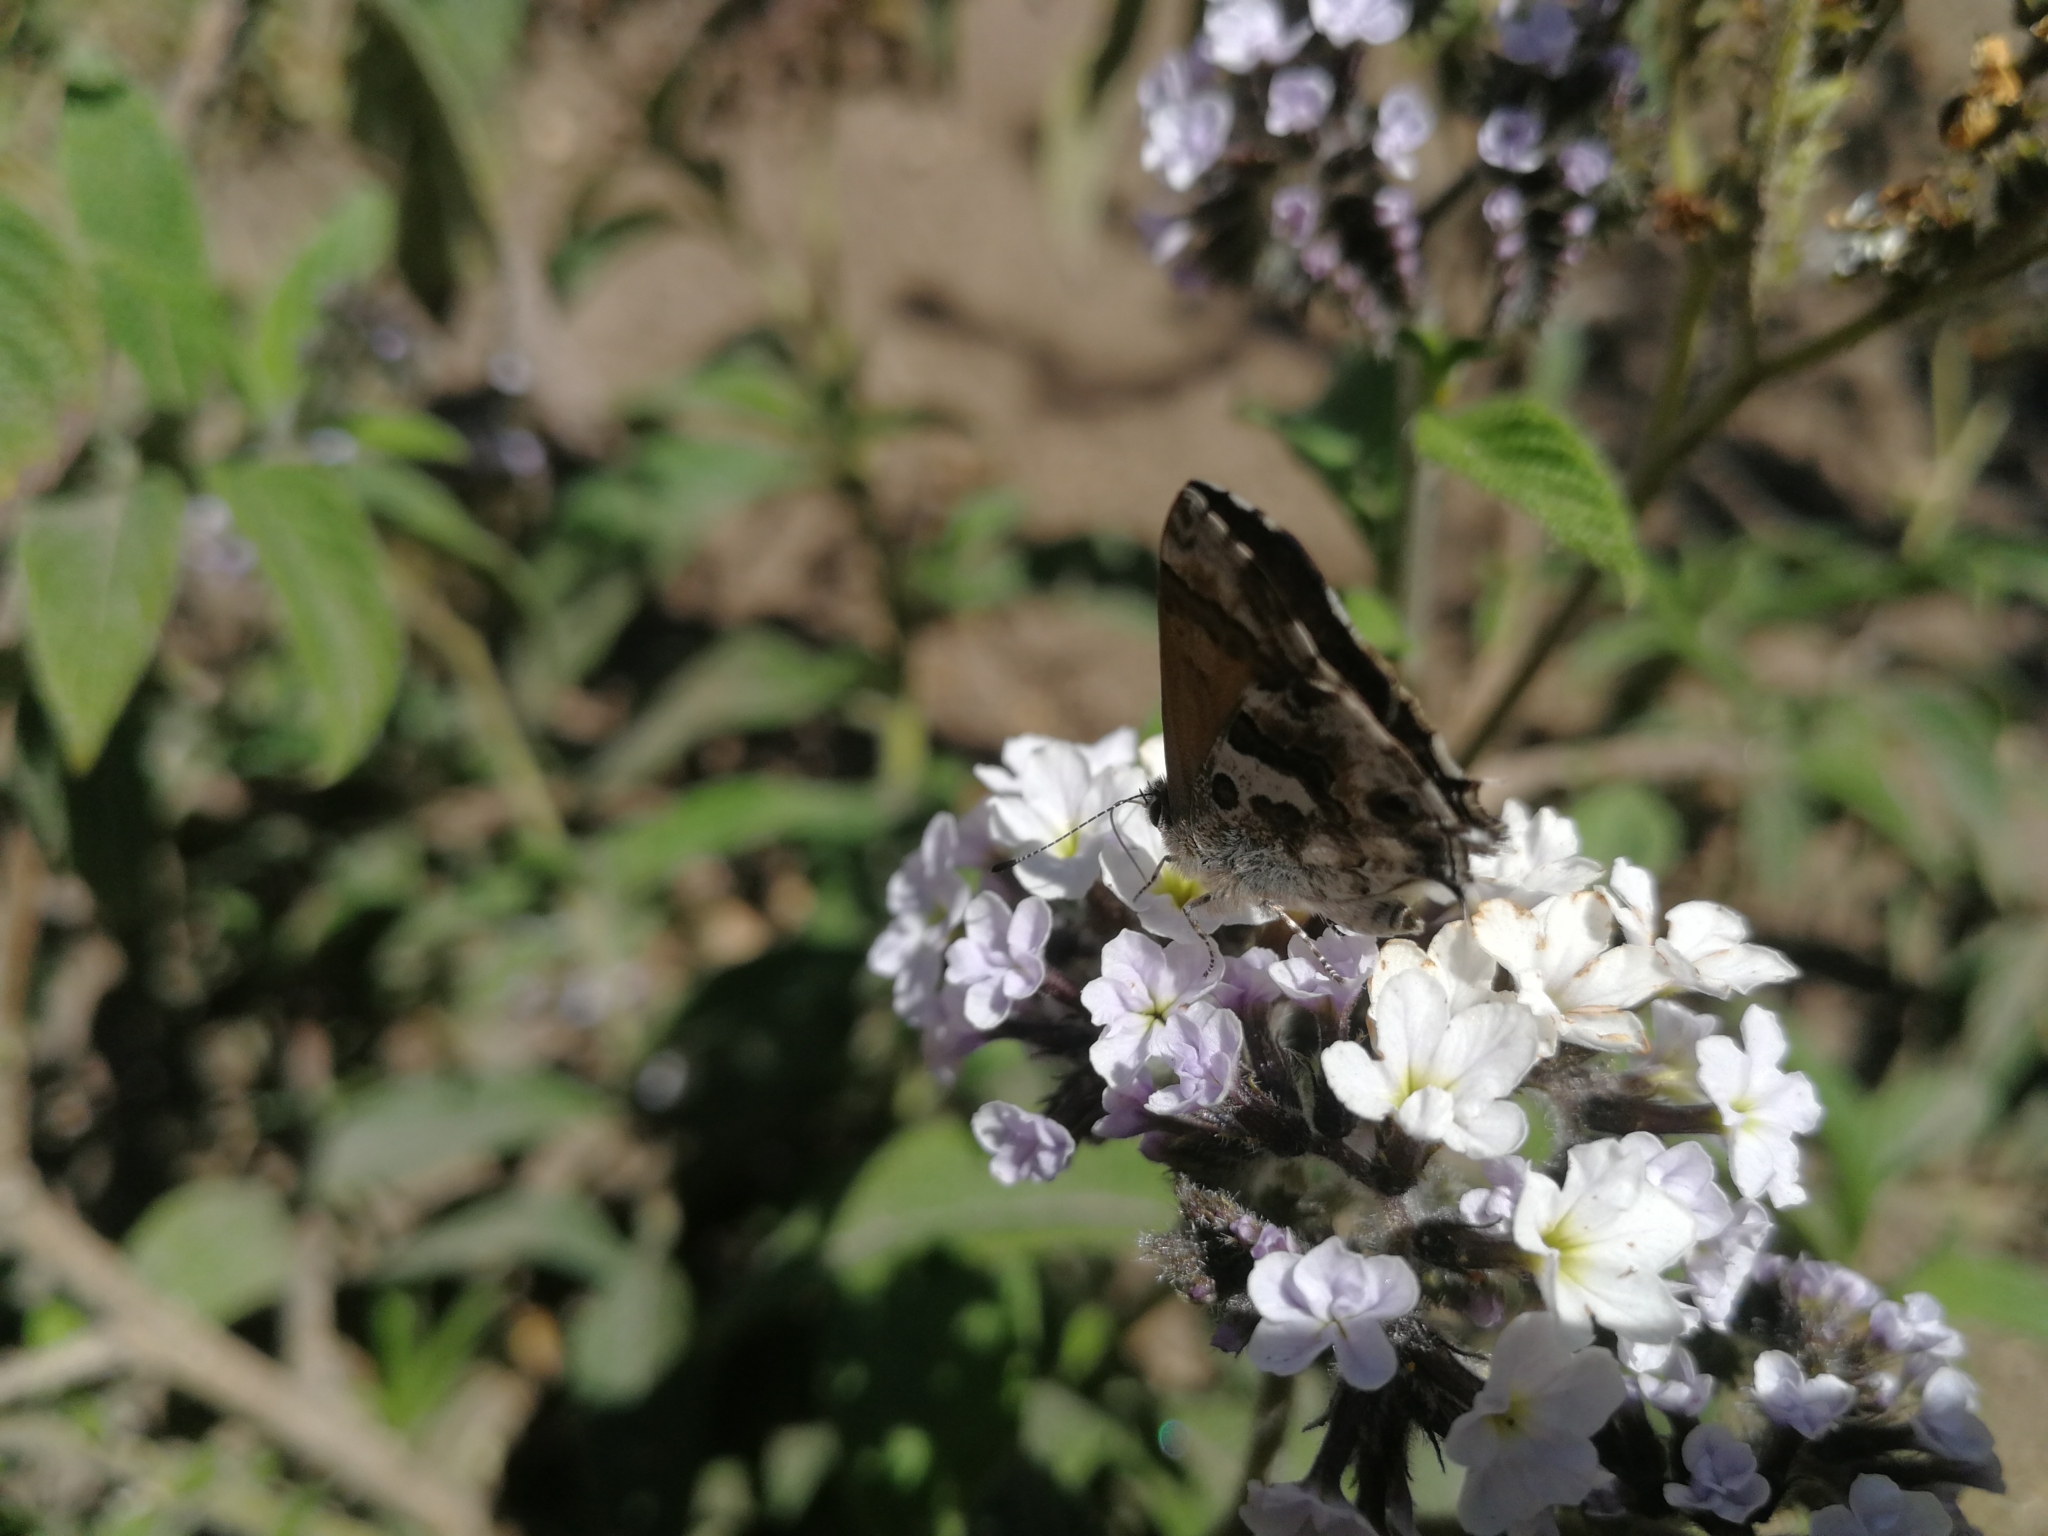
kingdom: Animalia
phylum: Arthropoda
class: Insecta
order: Lepidoptera
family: Lycaenidae
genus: Strymon
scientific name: Strymon
